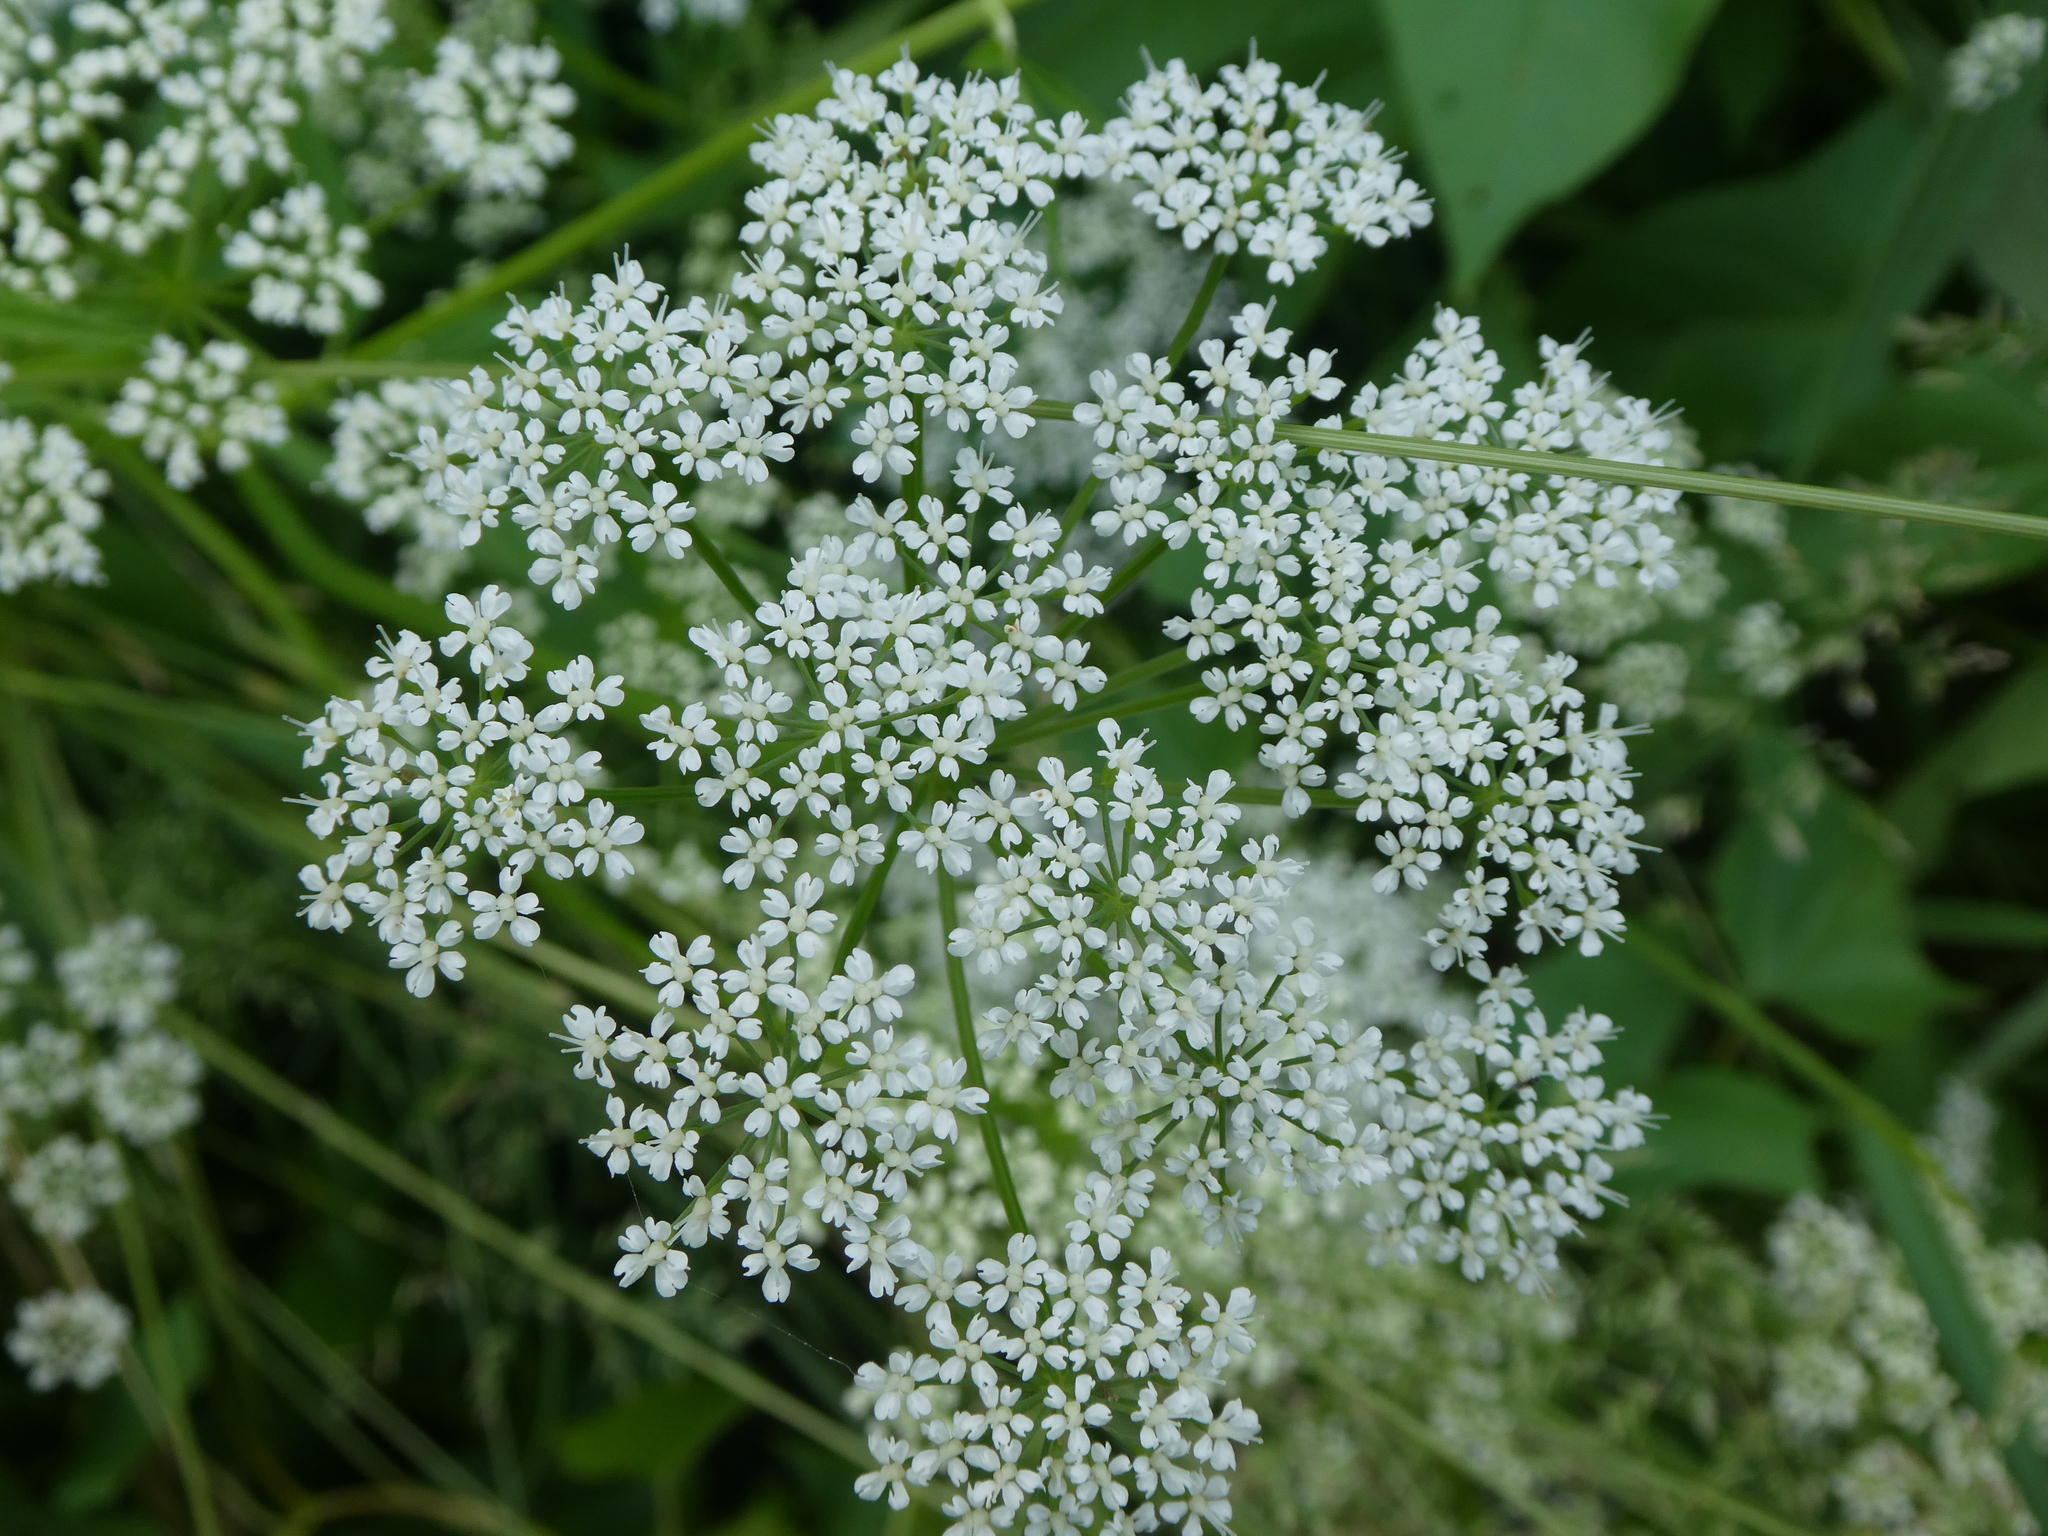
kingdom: Plantae
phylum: Tracheophyta
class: Magnoliopsida
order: Apiales
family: Apiaceae
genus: Aegopodium
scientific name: Aegopodium podagraria
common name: Ground-elder
